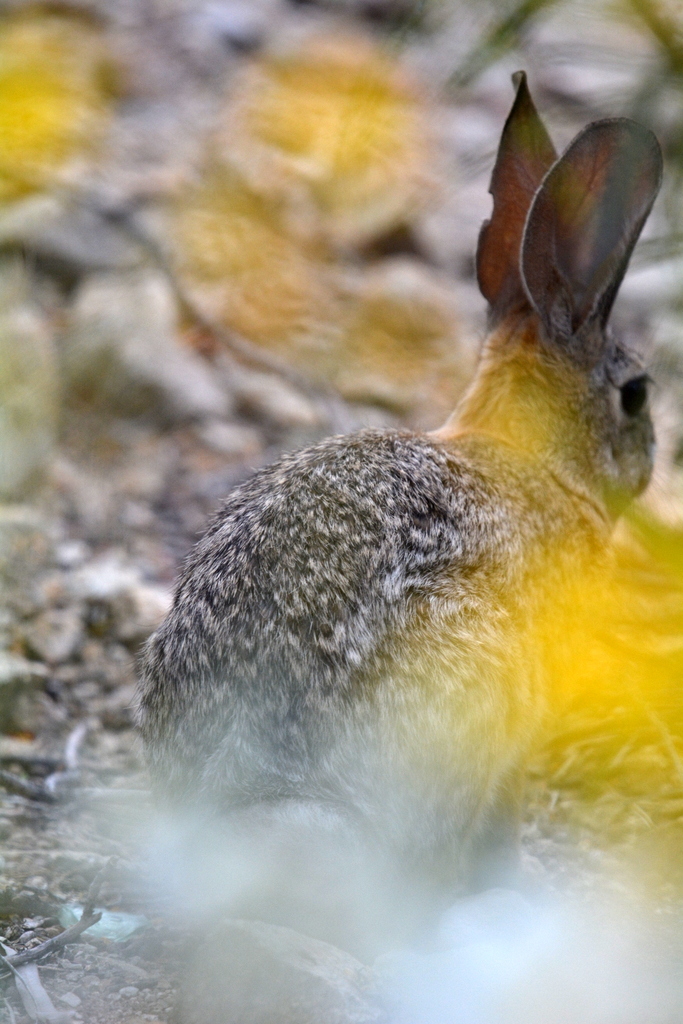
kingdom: Animalia
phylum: Chordata
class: Mammalia
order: Lagomorpha
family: Leporidae
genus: Sylvilagus
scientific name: Sylvilagus audubonii
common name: Desert cottontail
